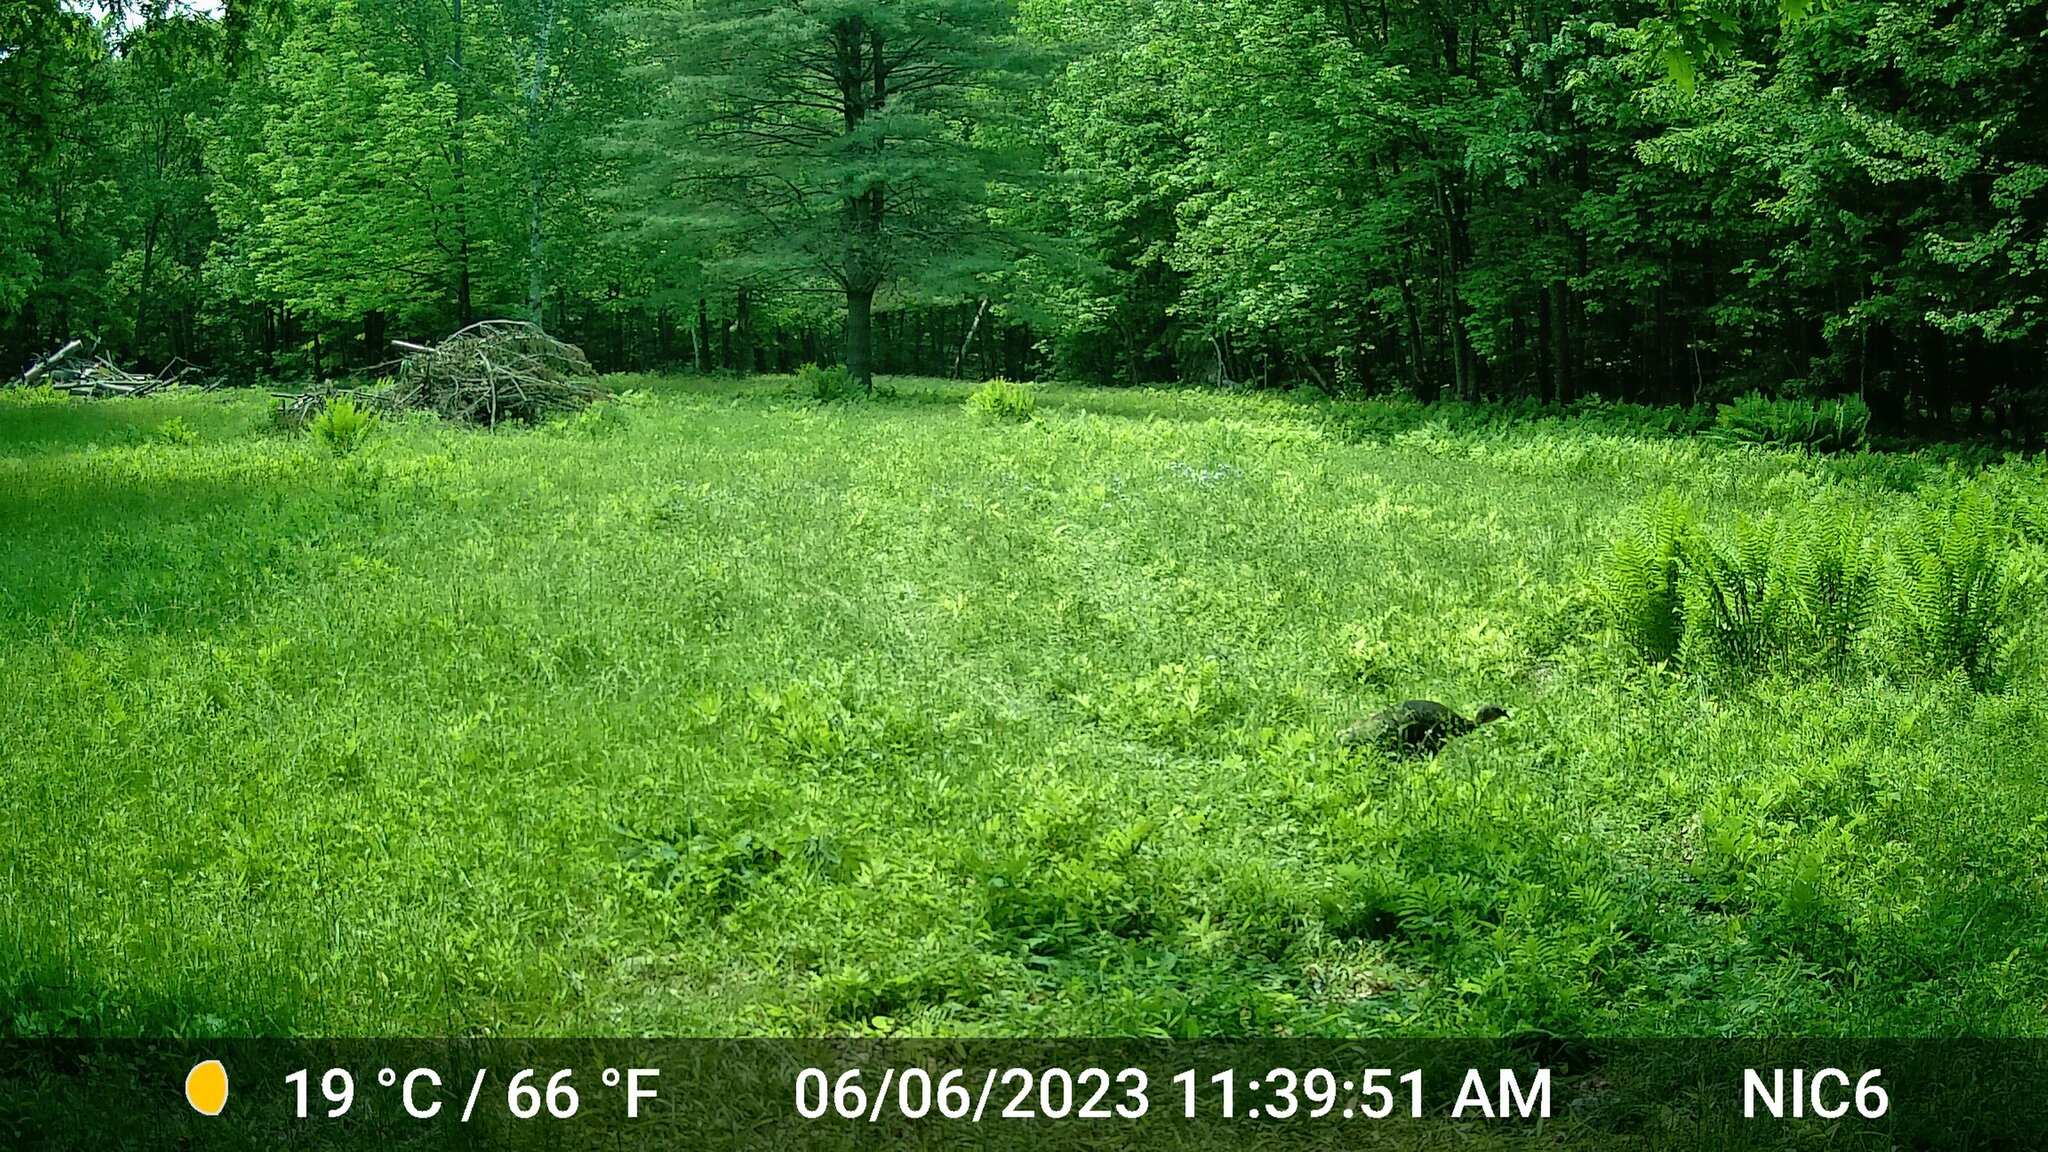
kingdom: Animalia
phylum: Chordata
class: Aves
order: Galliformes
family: Phasianidae
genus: Meleagris
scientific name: Meleagris gallopavo
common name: Wild turkey
